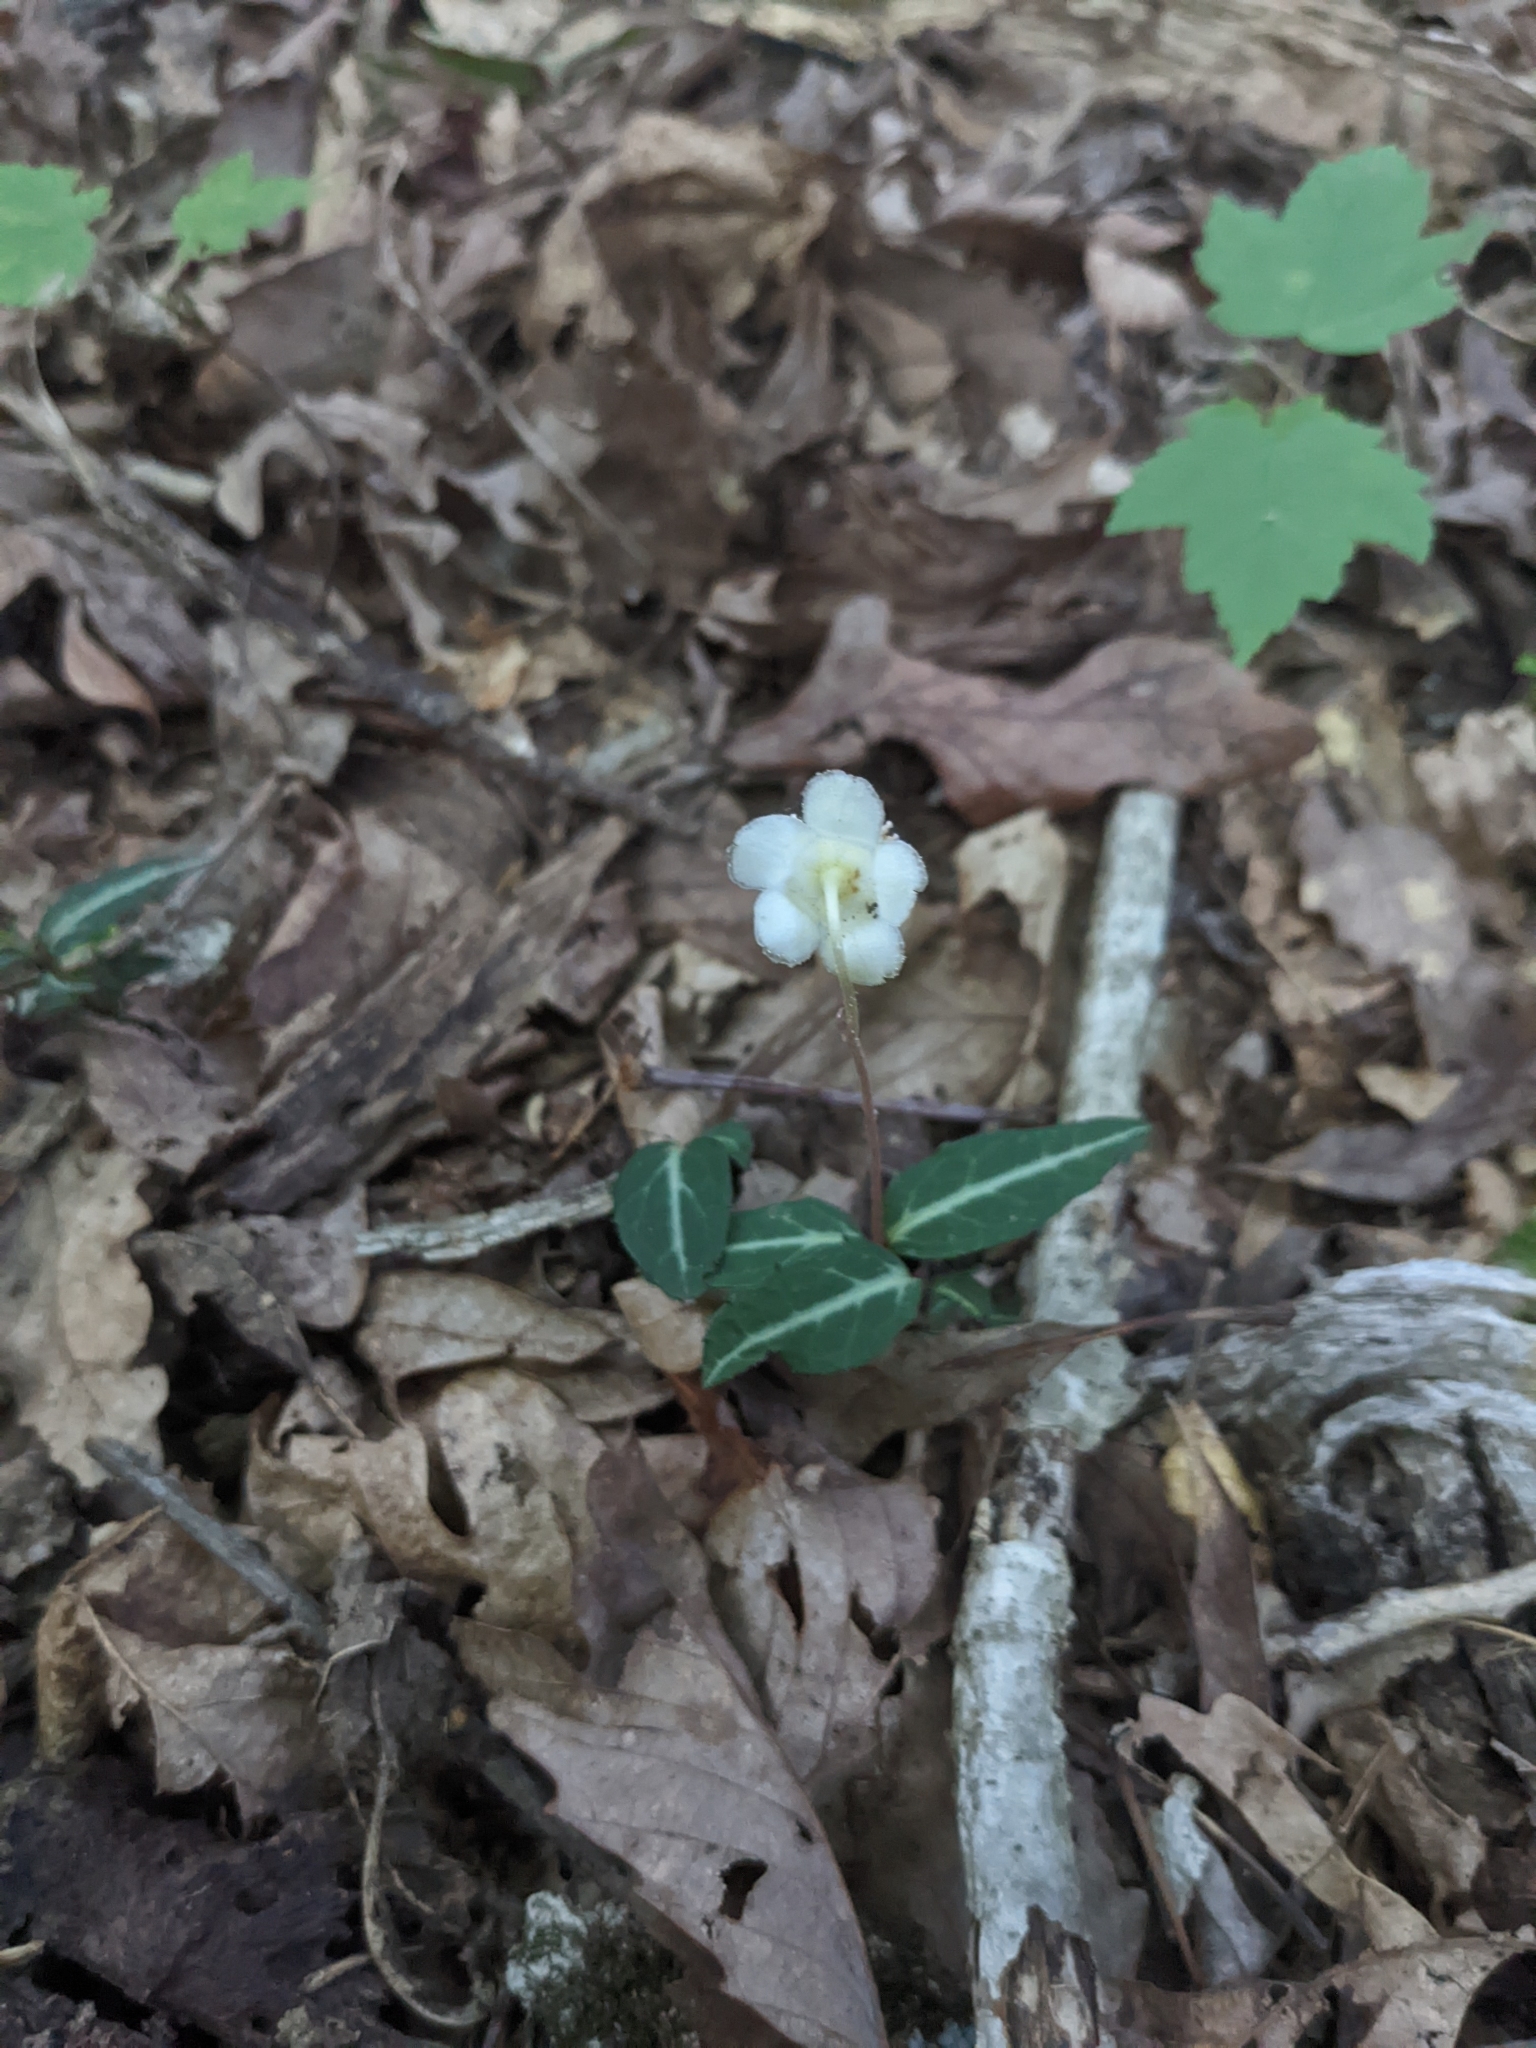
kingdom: Plantae
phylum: Tracheophyta
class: Magnoliopsida
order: Ericales
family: Ericaceae
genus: Chimaphila
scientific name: Chimaphila maculata
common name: Spotted pipsissewa
